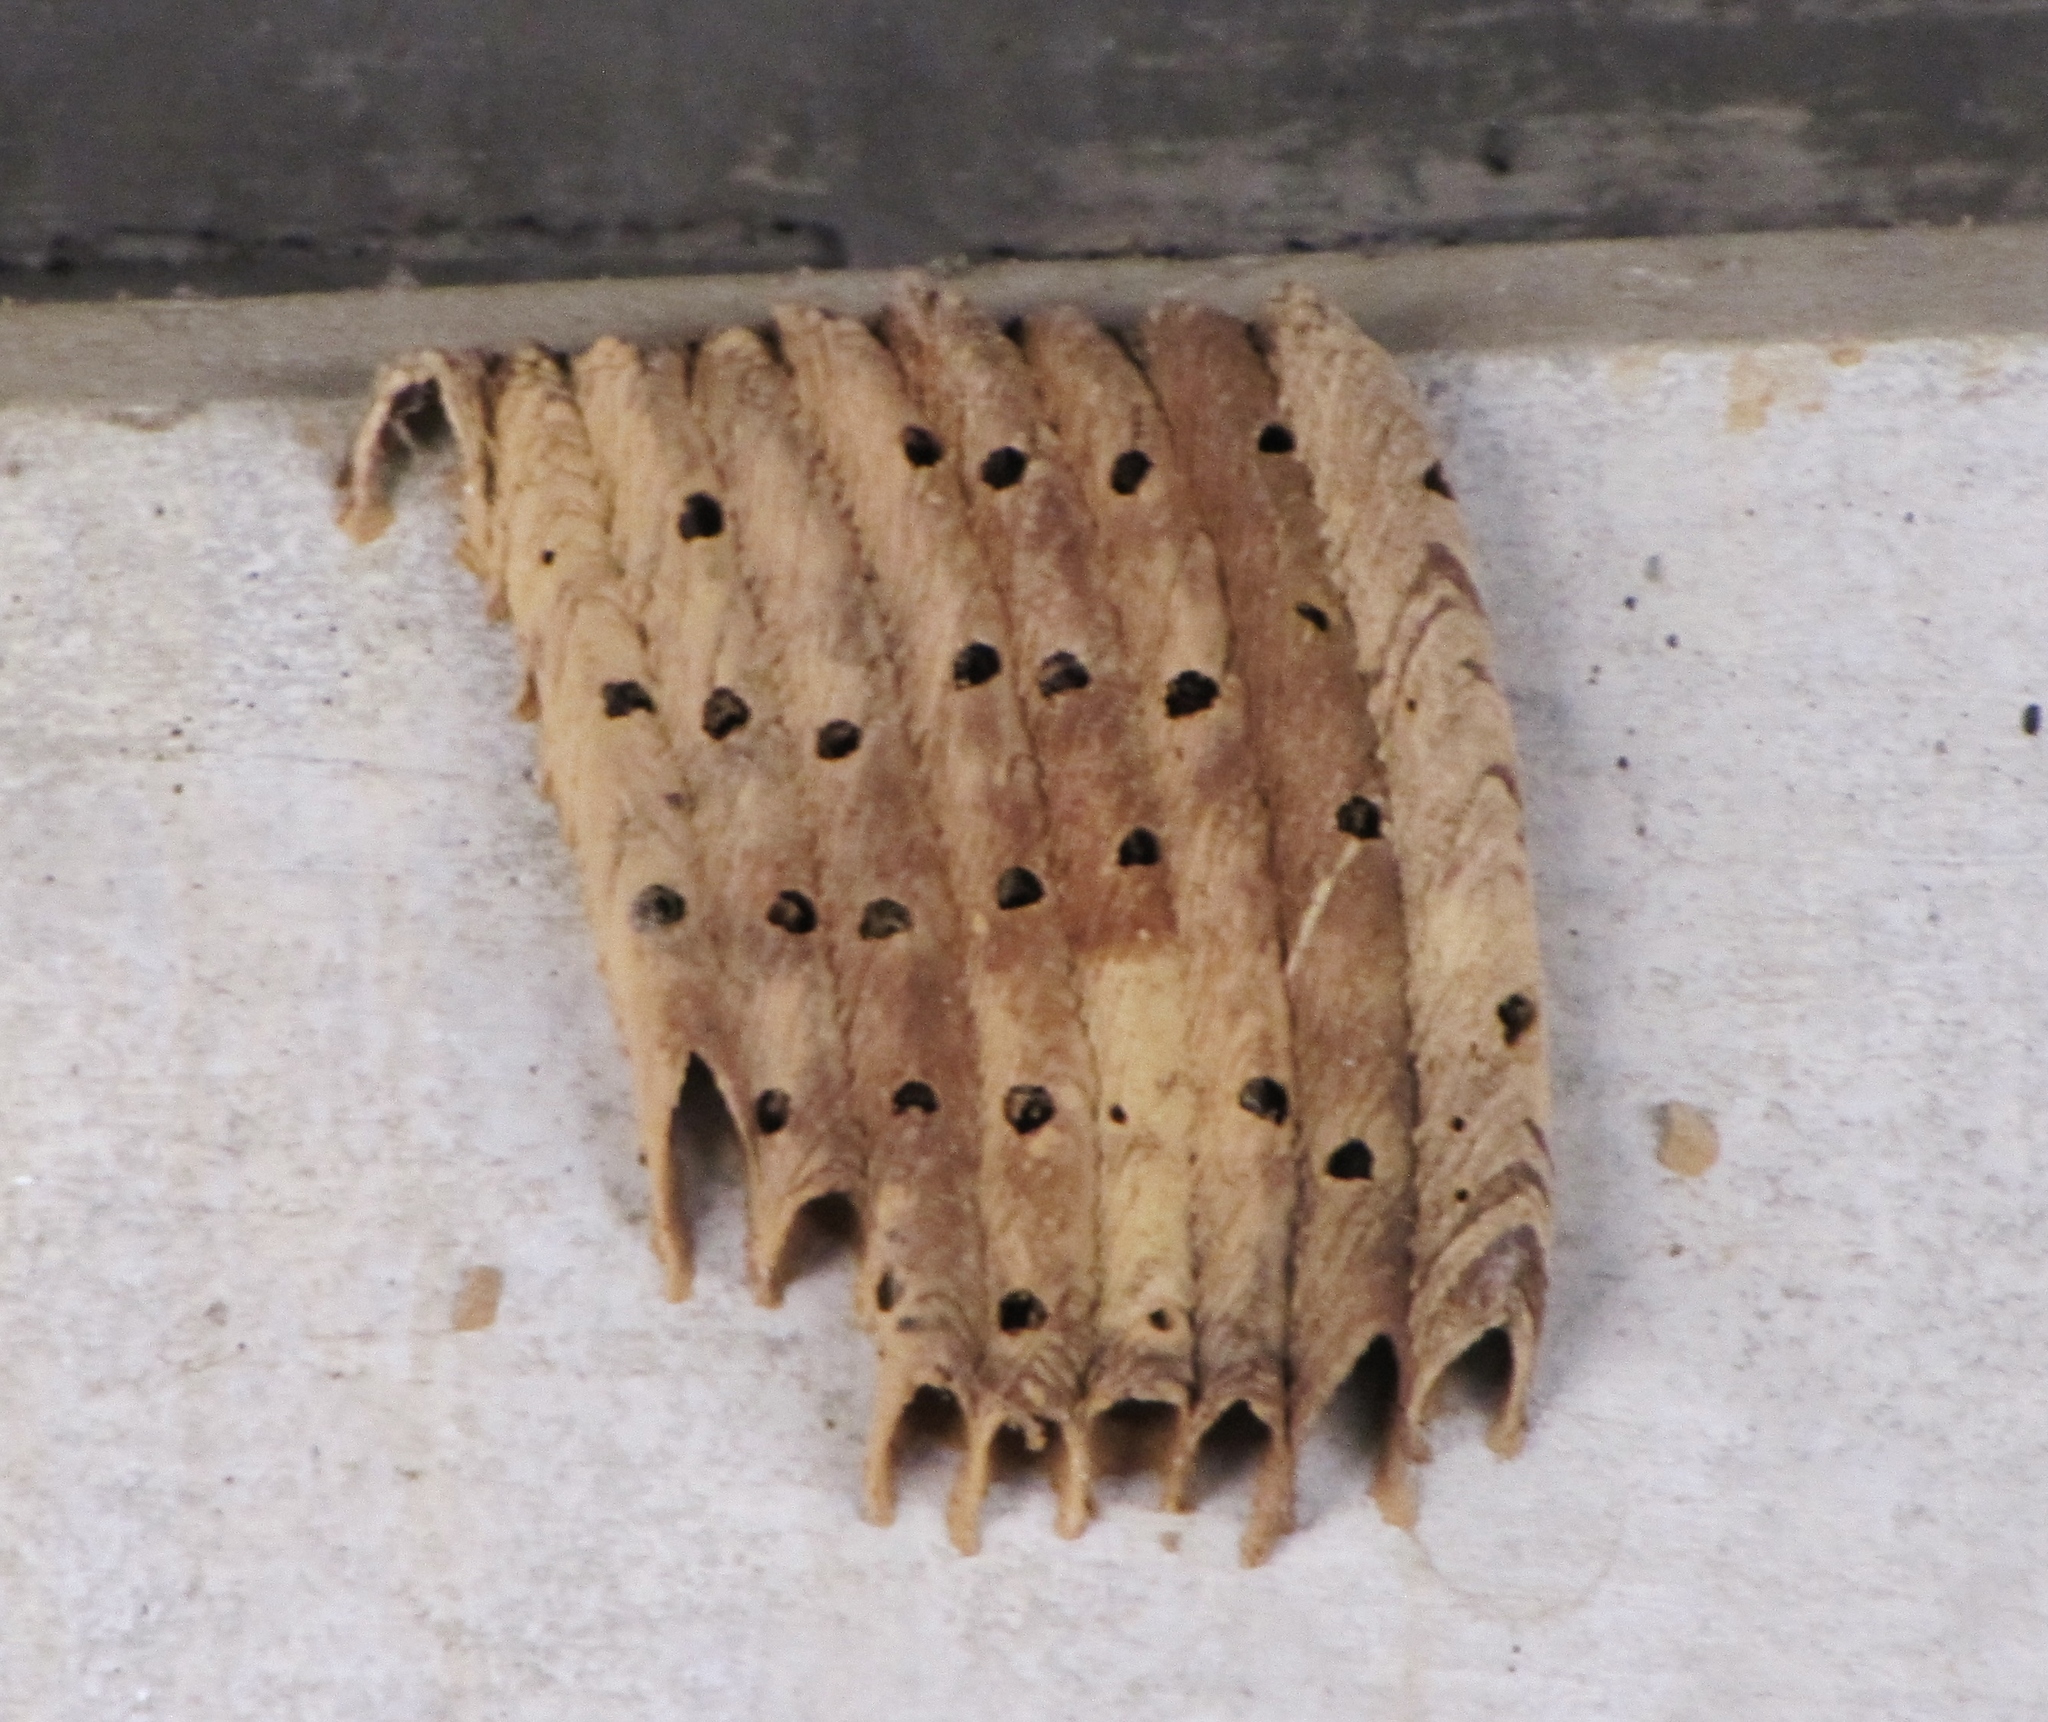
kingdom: Animalia
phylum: Arthropoda
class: Insecta
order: Hymenoptera
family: Crabronidae
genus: Trypoxylon
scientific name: Trypoxylon politum
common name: Organ-pipe mud-dauber wasp
